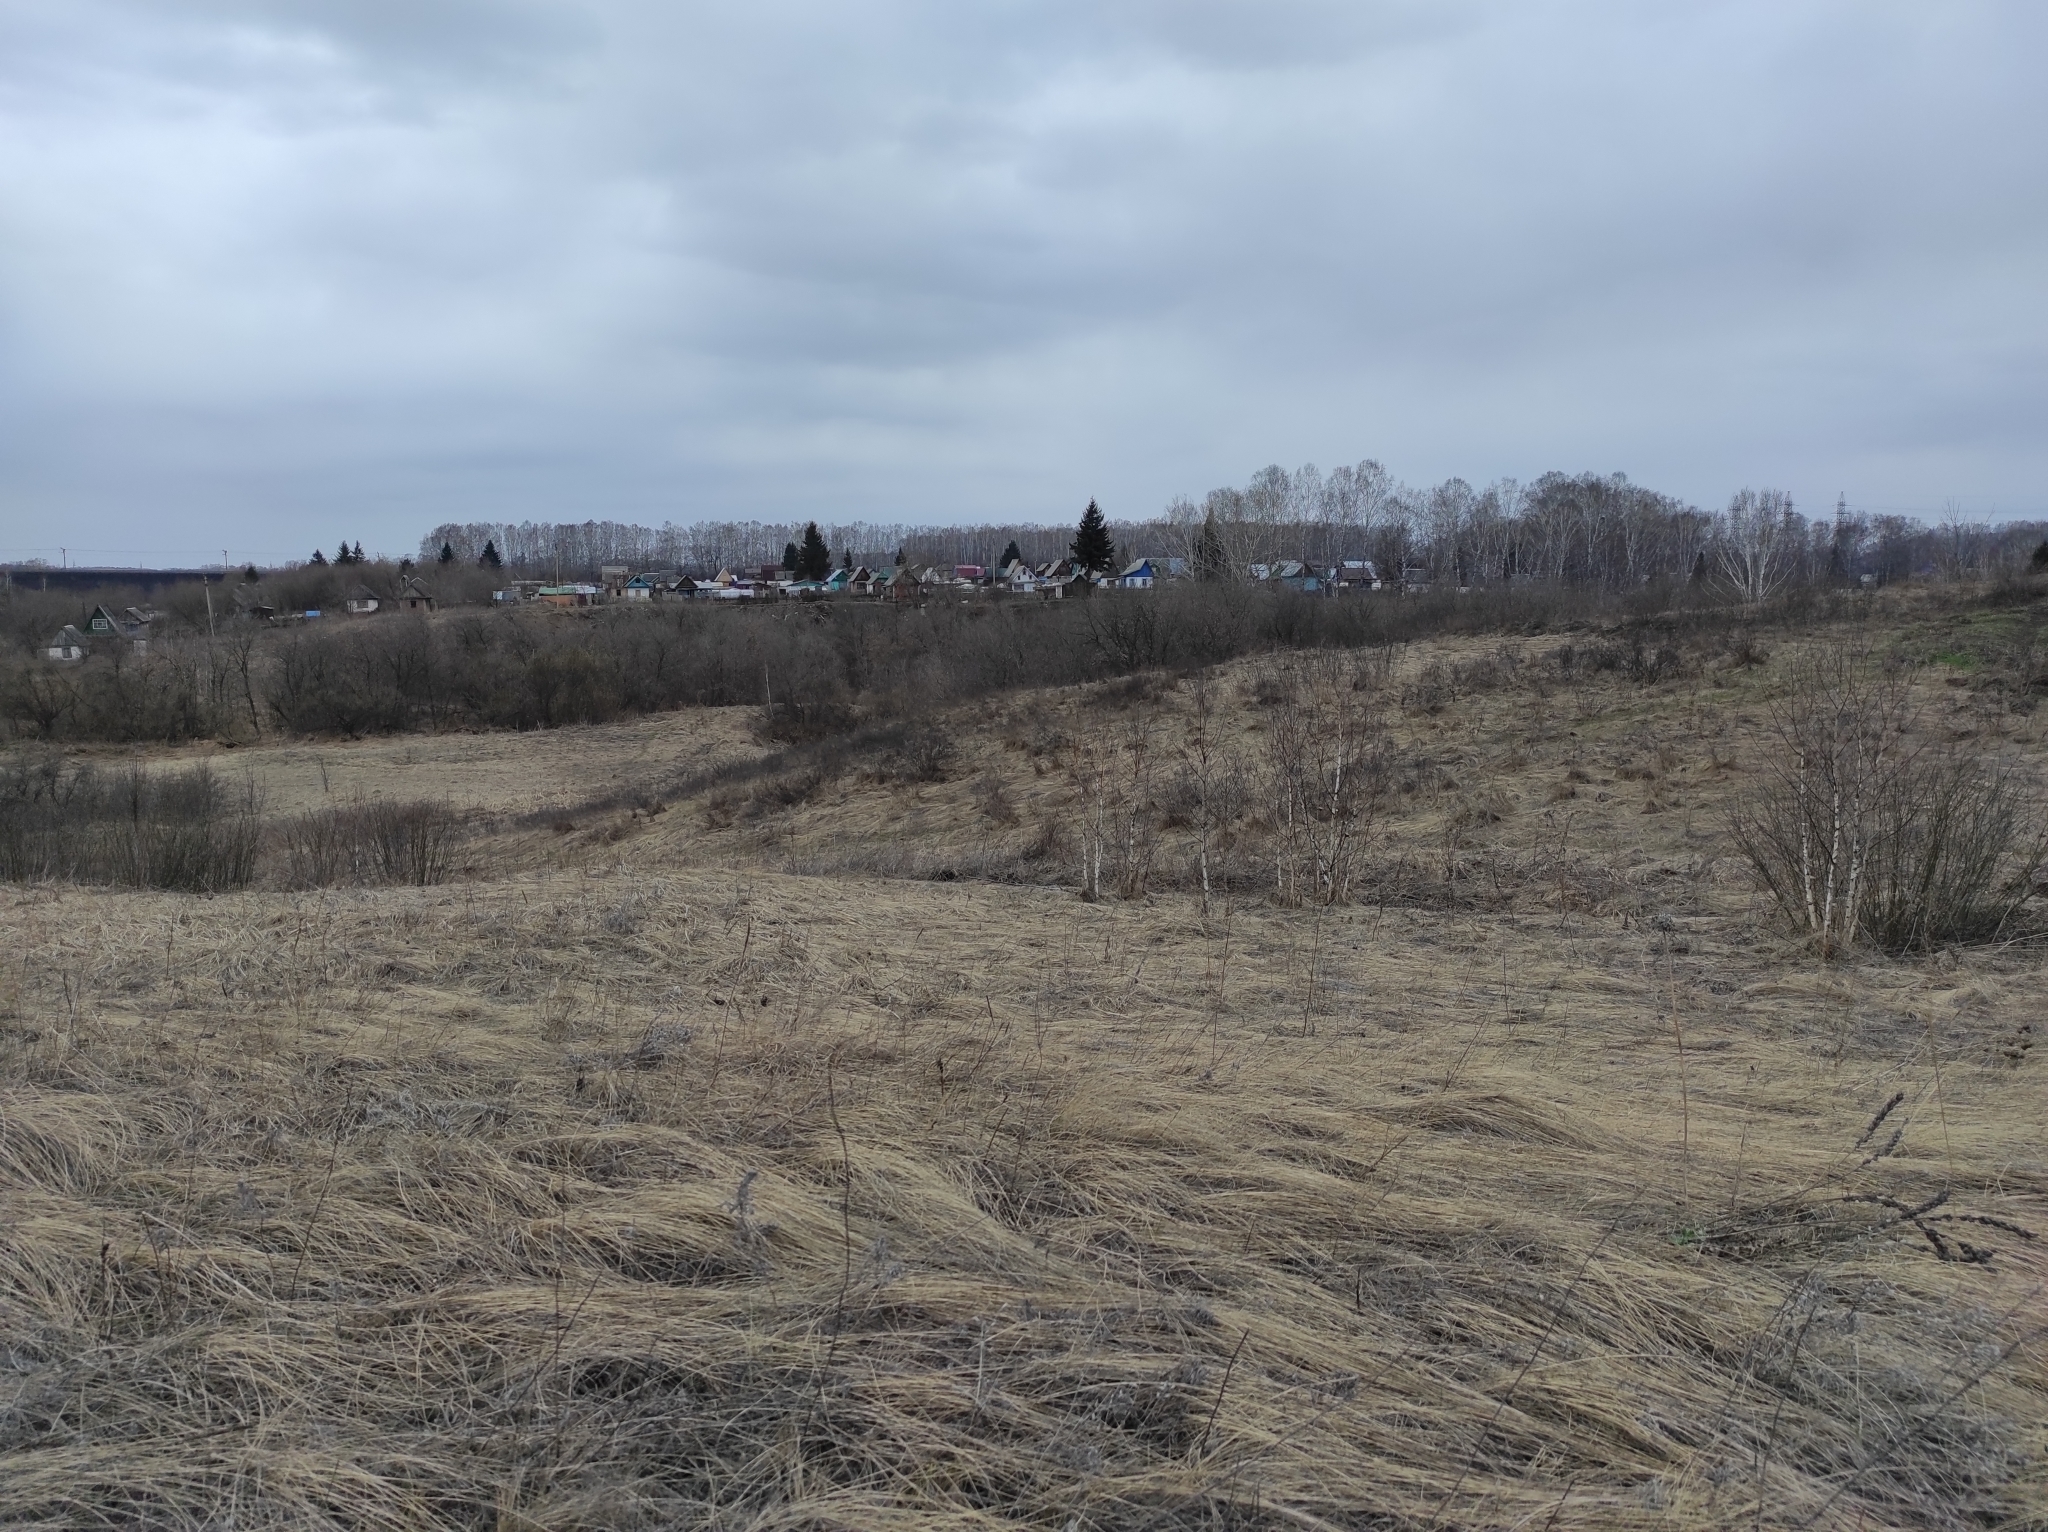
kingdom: Plantae
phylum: Tracheophyta
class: Magnoliopsida
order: Ranunculales
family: Ranunculaceae
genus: Adonis
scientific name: Adonis vernalis
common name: Yellow pheasants-eye
